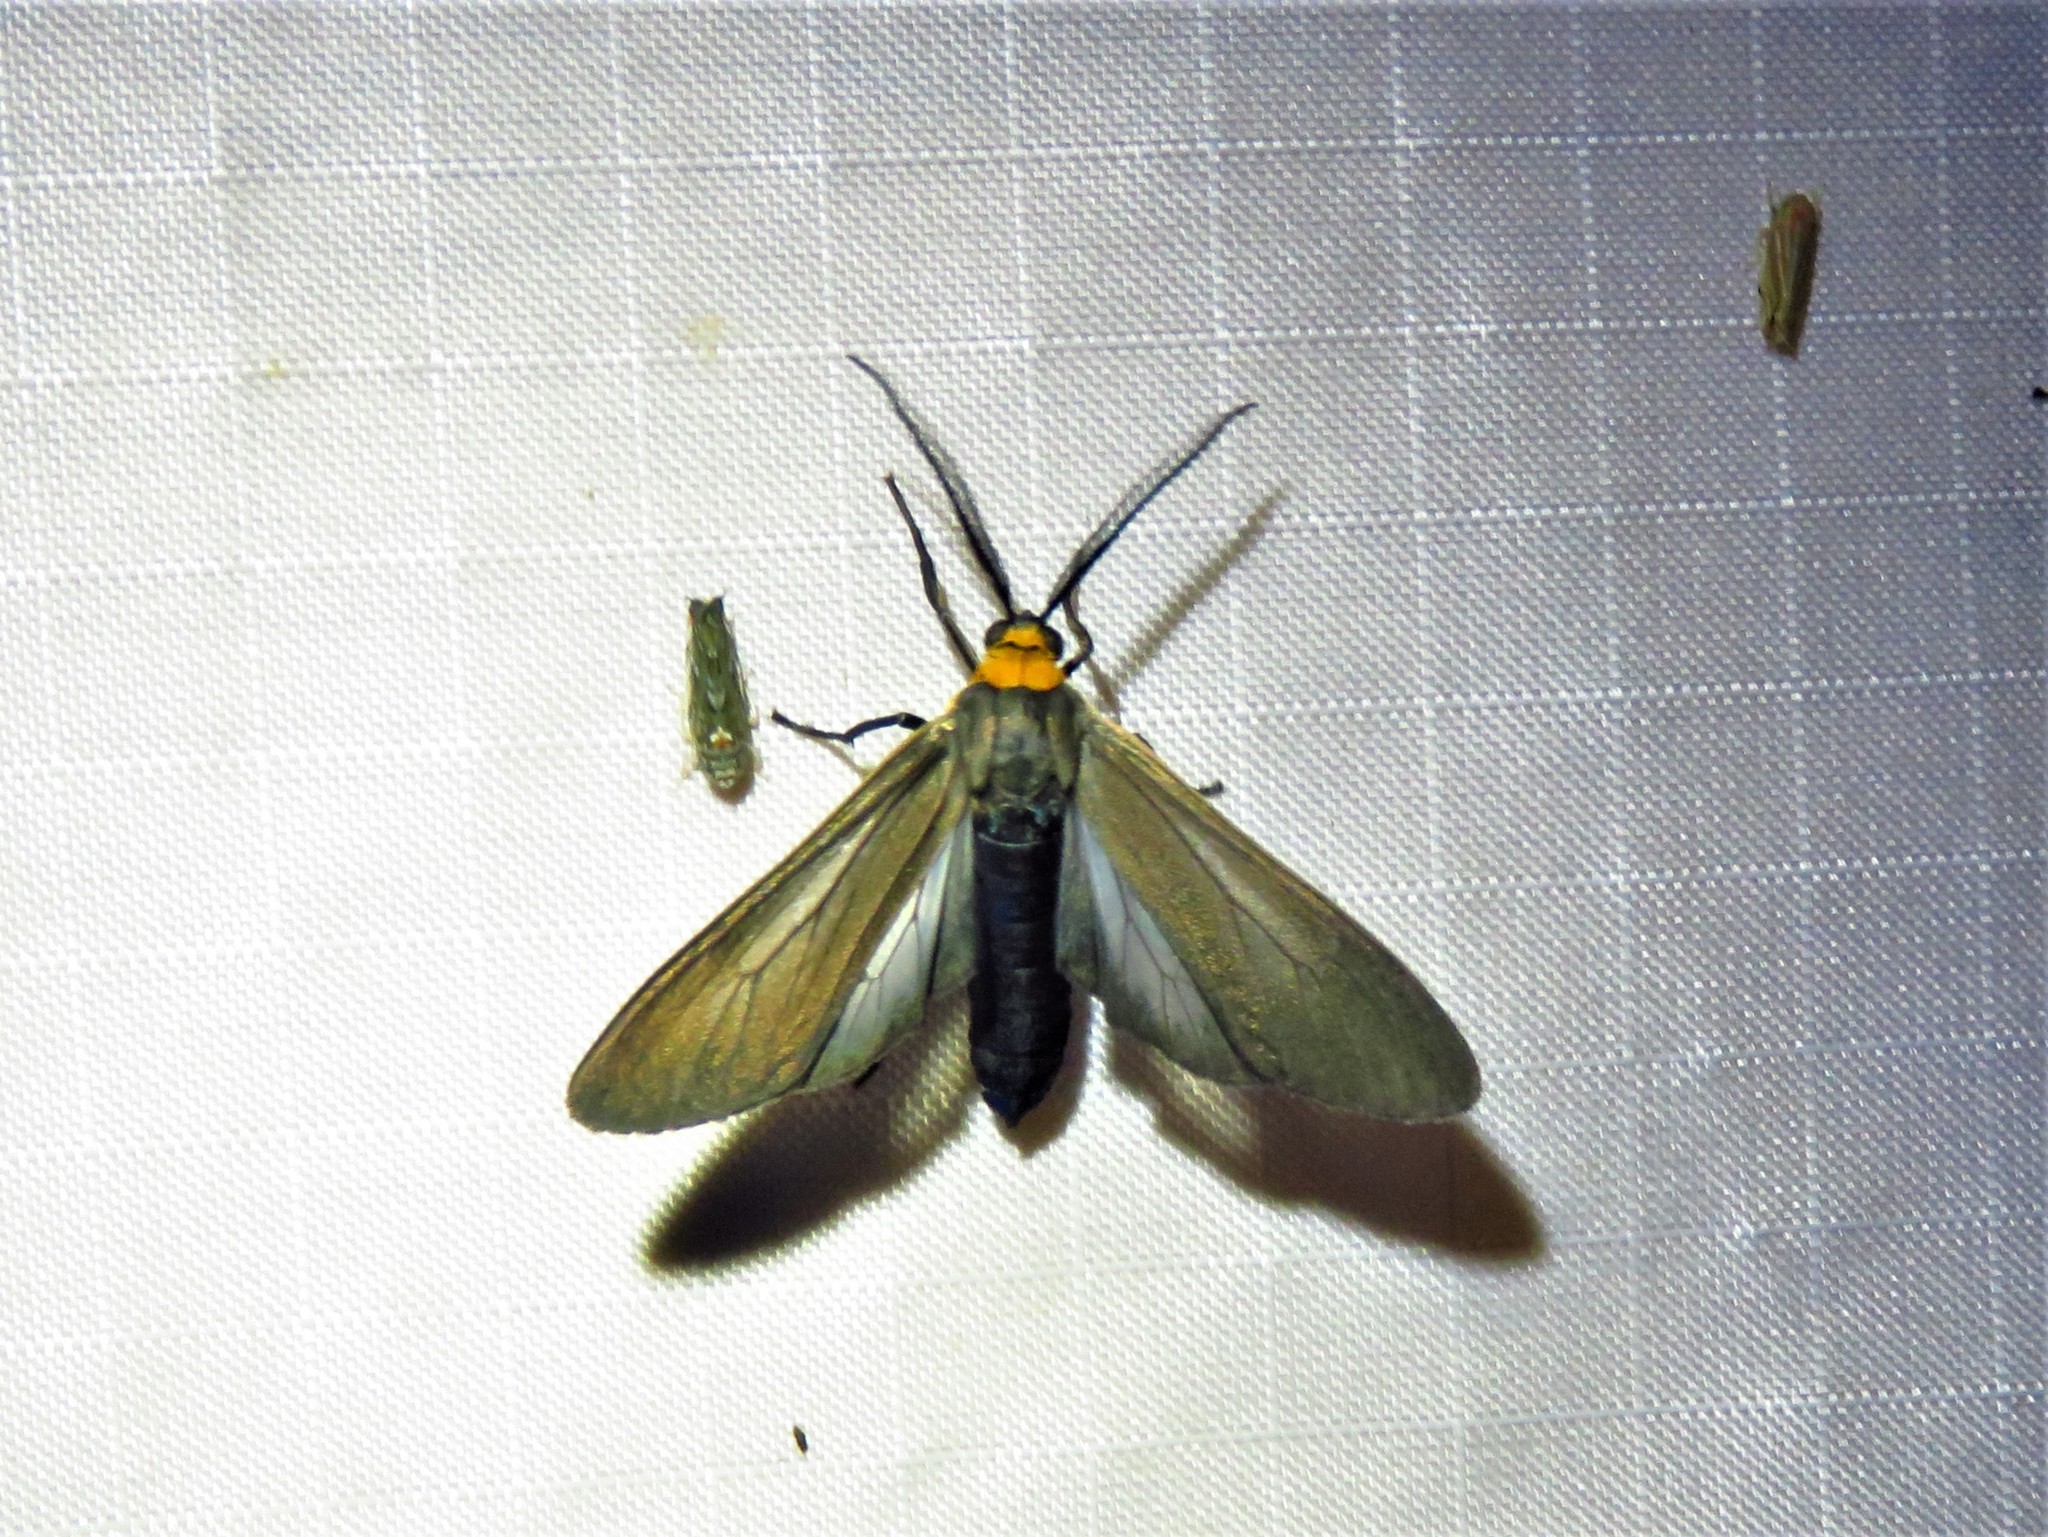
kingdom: Animalia
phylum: Arthropoda
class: Insecta
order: Lepidoptera
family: Erebidae
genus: Cisseps
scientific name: Cisseps fulvicollis
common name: Yellow-collared scape moth
